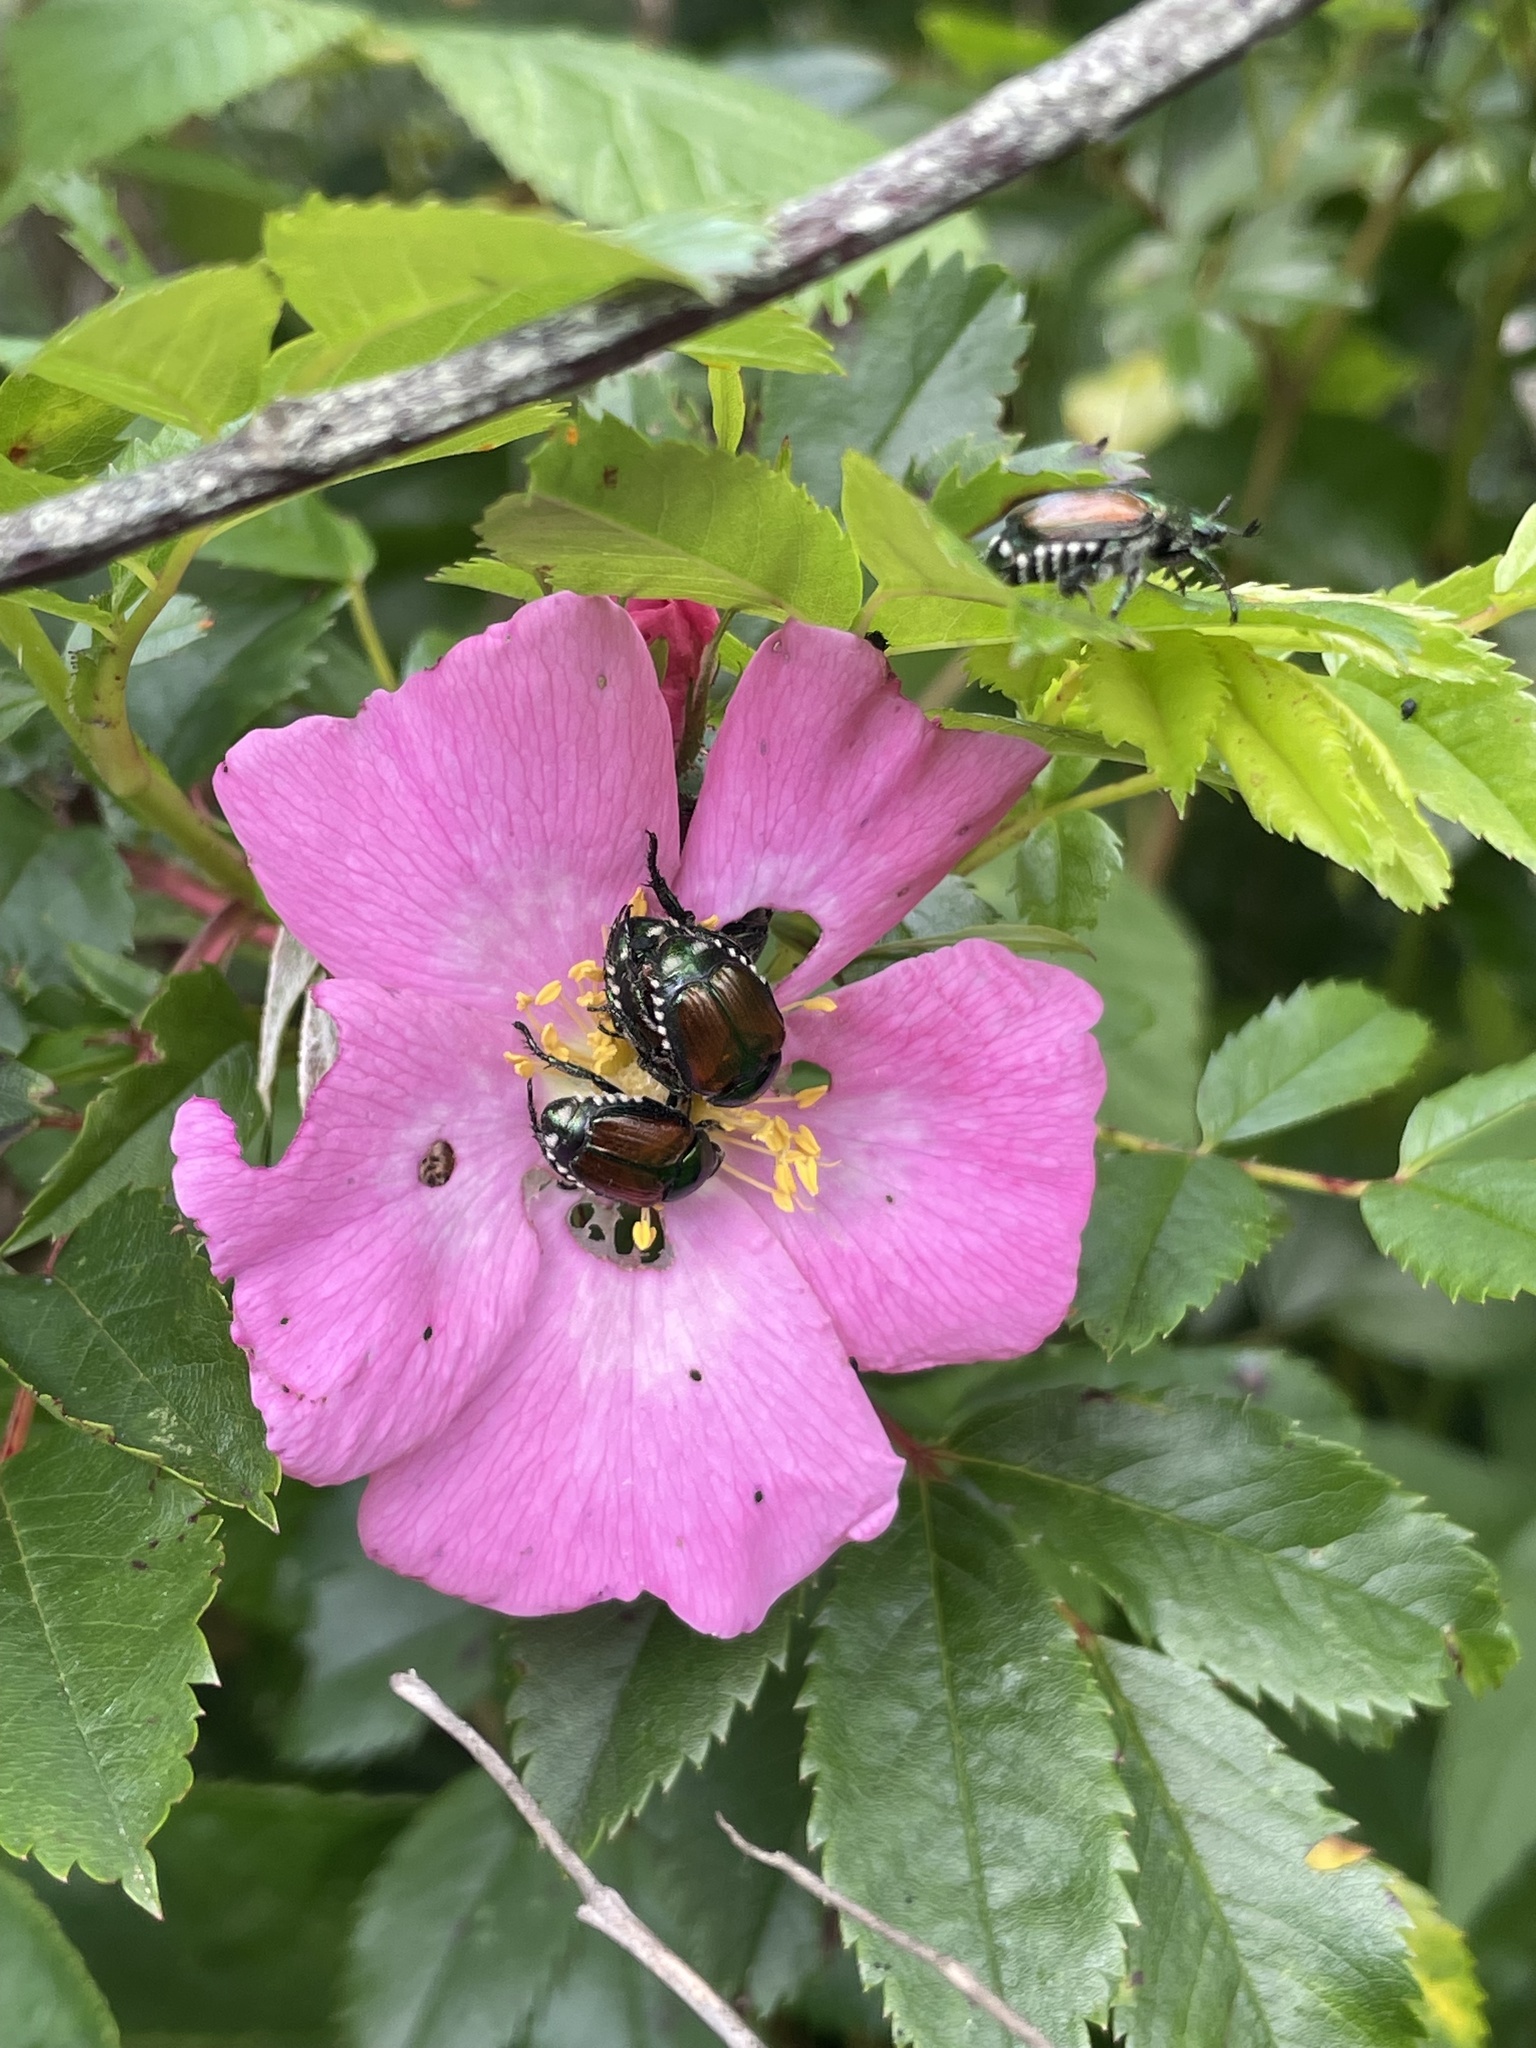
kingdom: Animalia
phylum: Arthropoda
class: Insecta
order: Coleoptera
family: Scarabaeidae
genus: Popillia
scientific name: Popillia japonica
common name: Japanese beetle
